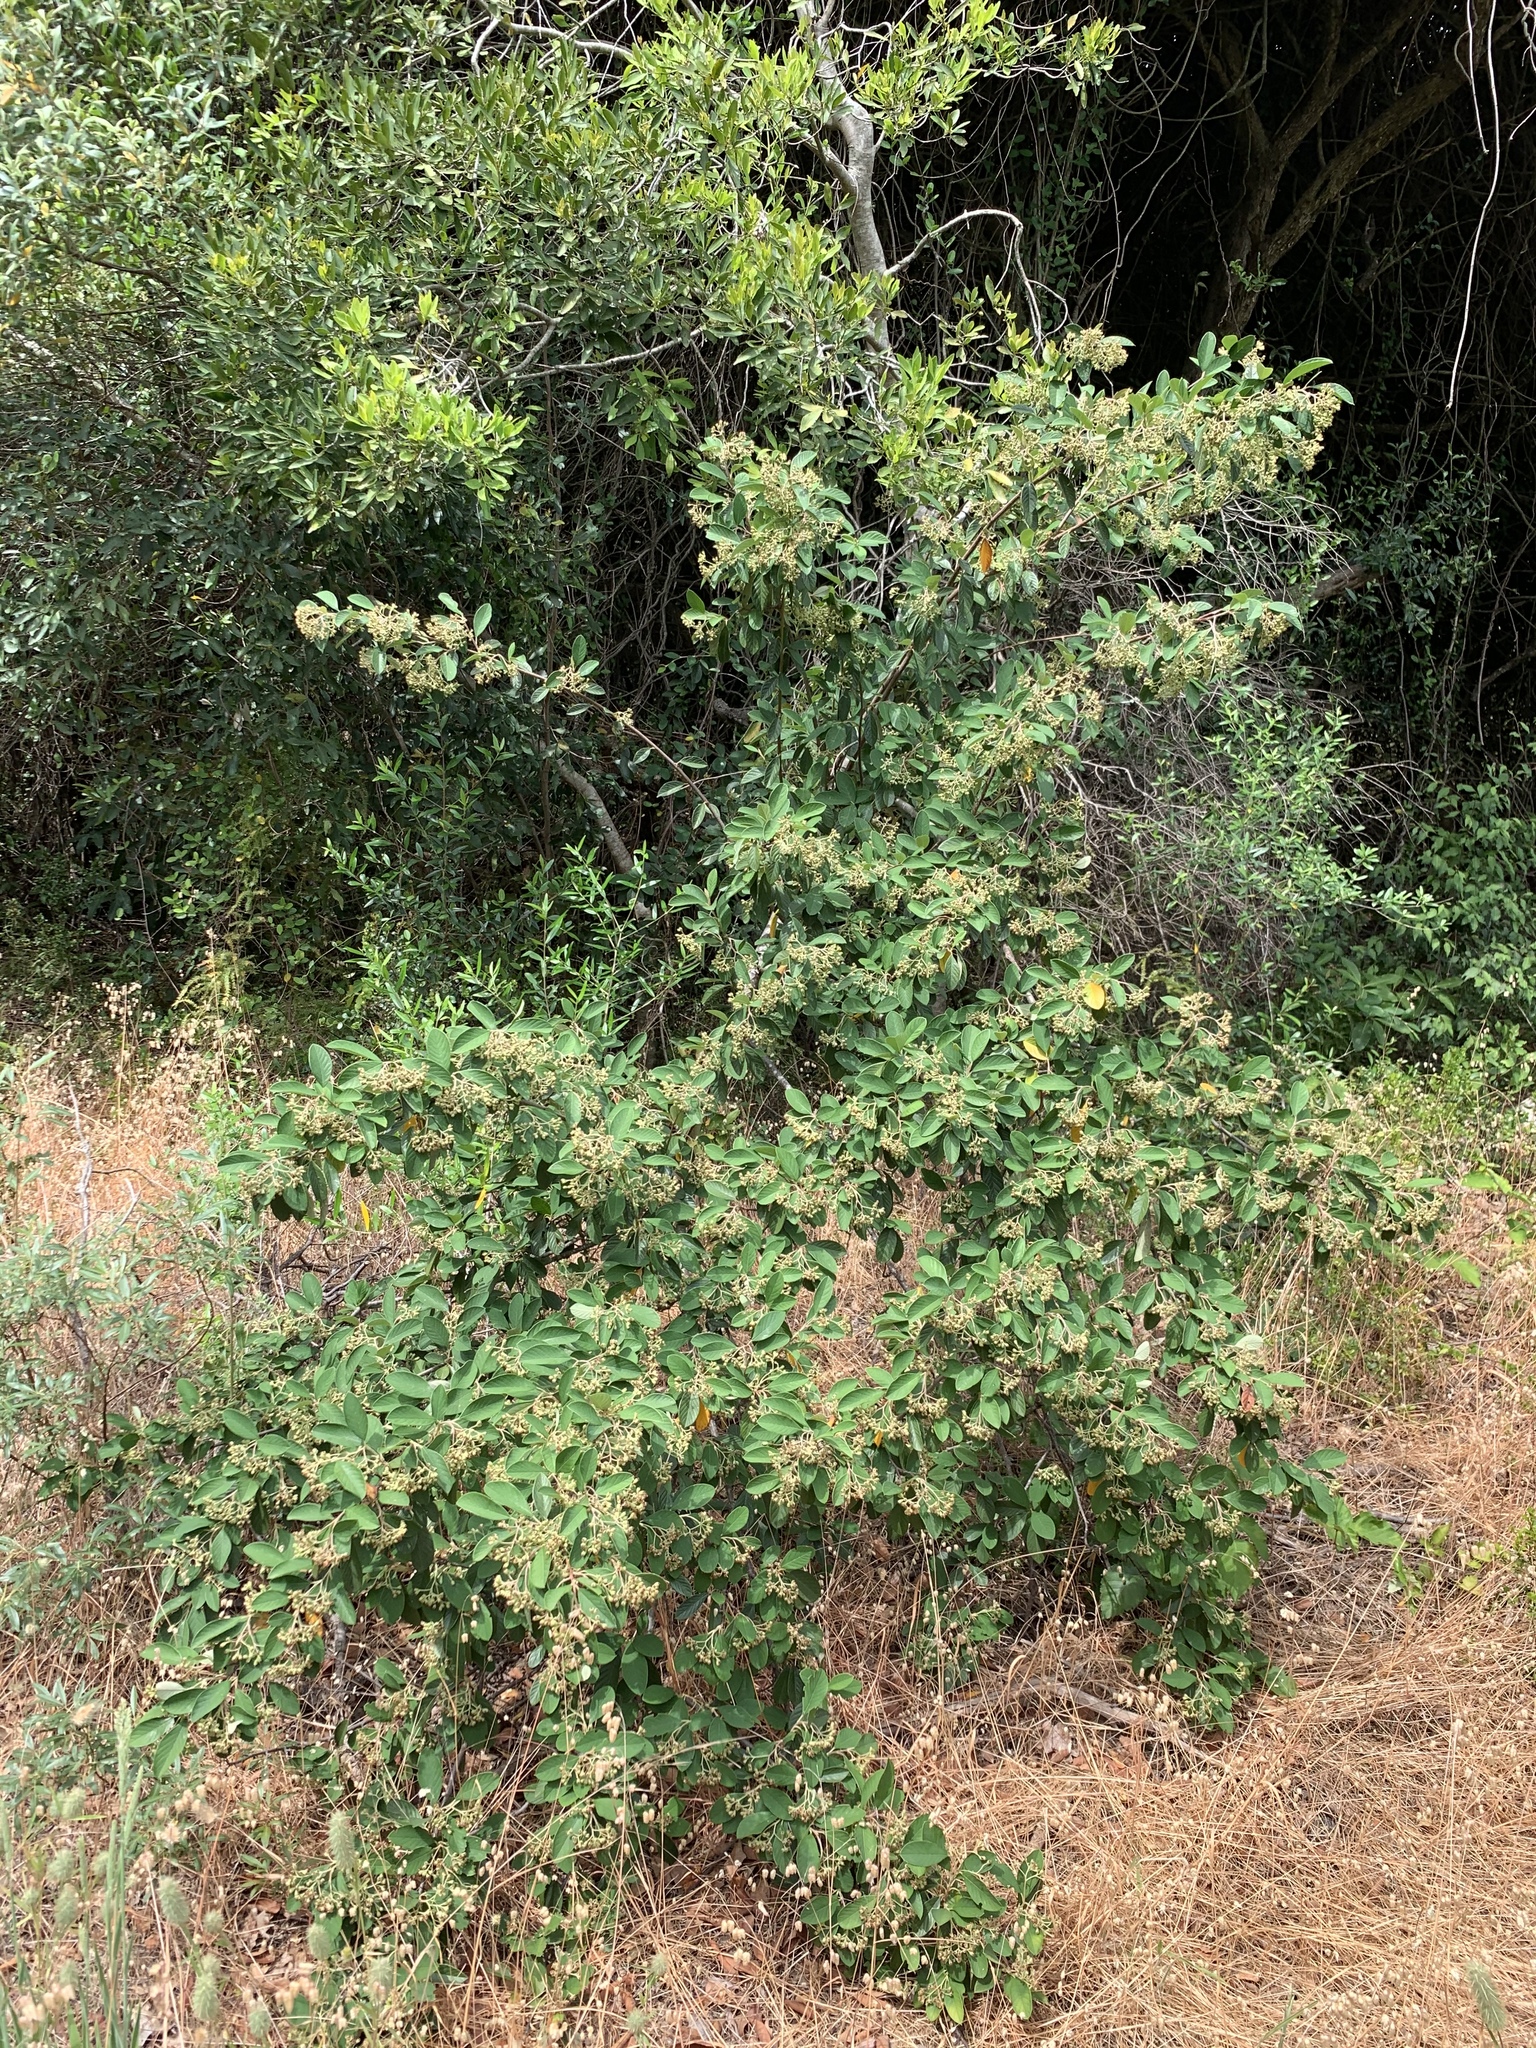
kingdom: Plantae
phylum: Tracheophyta
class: Magnoliopsida
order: Rosales
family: Rosaceae
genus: Cotoneaster
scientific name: Cotoneaster coriaceus
